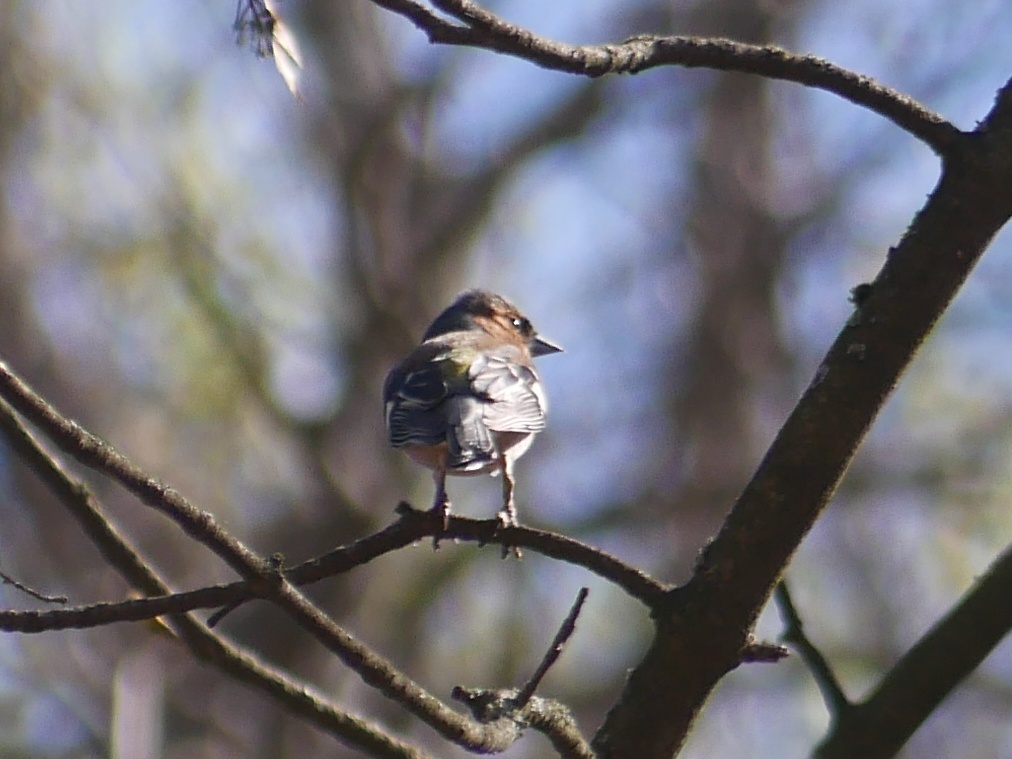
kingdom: Animalia
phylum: Chordata
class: Aves
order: Passeriformes
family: Fringillidae
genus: Fringilla
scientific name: Fringilla coelebs
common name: Common chaffinch
